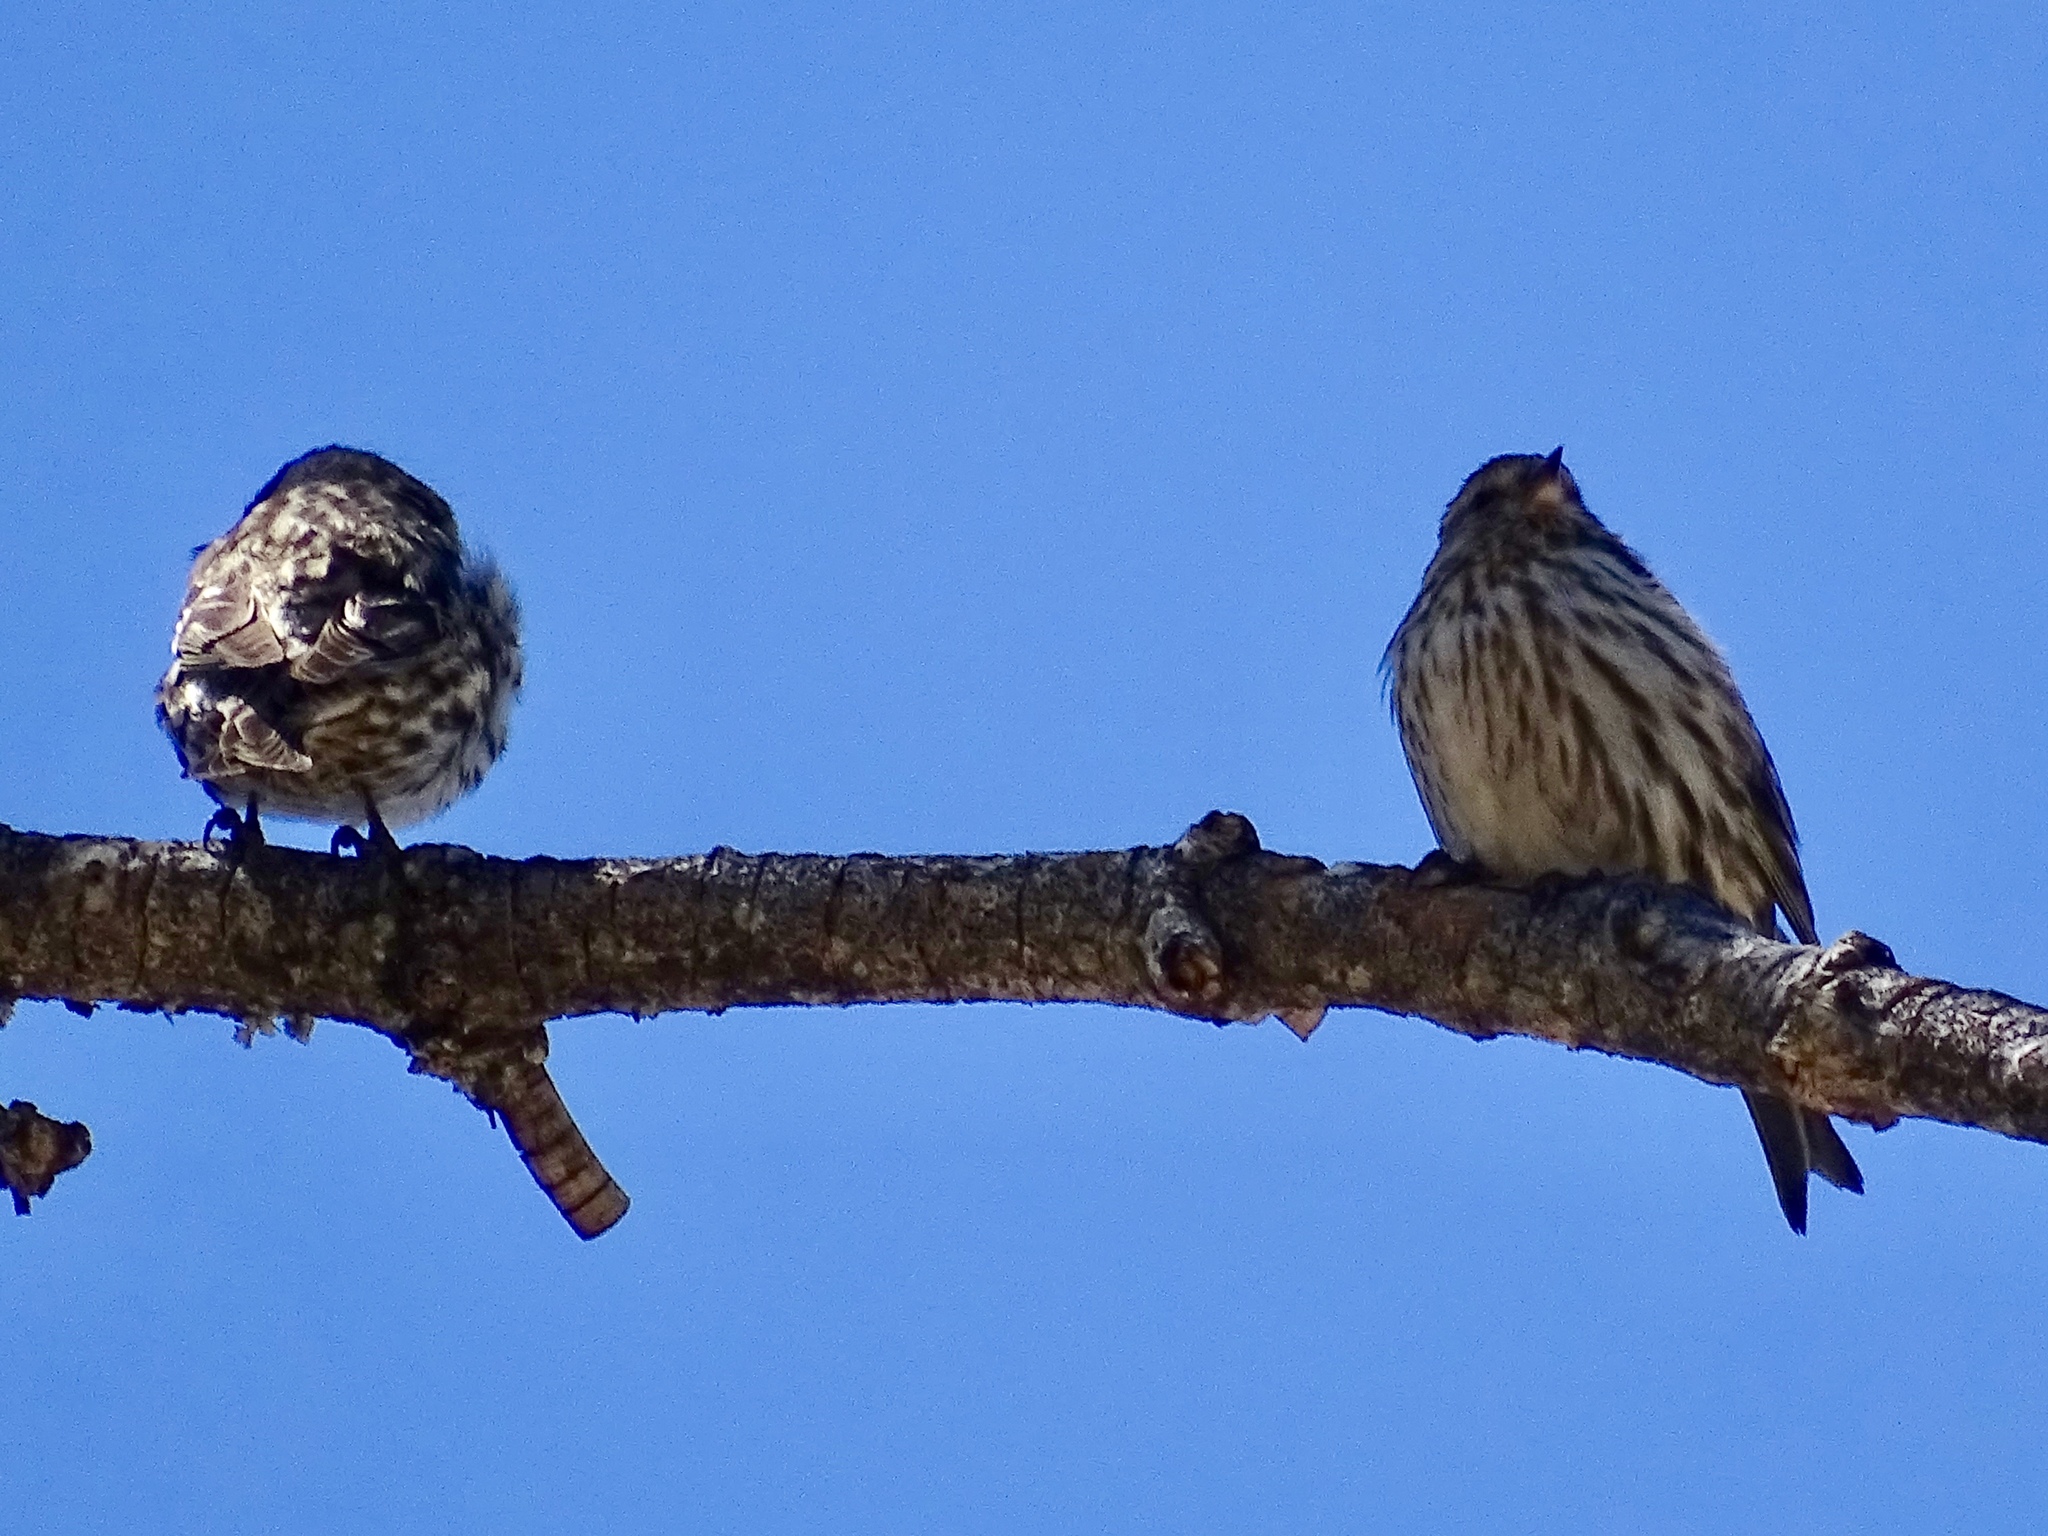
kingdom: Animalia
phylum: Chordata
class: Aves
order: Passeriformes
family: Fringillidae
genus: Spinus
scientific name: Spinus pinus
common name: Pine siskin
